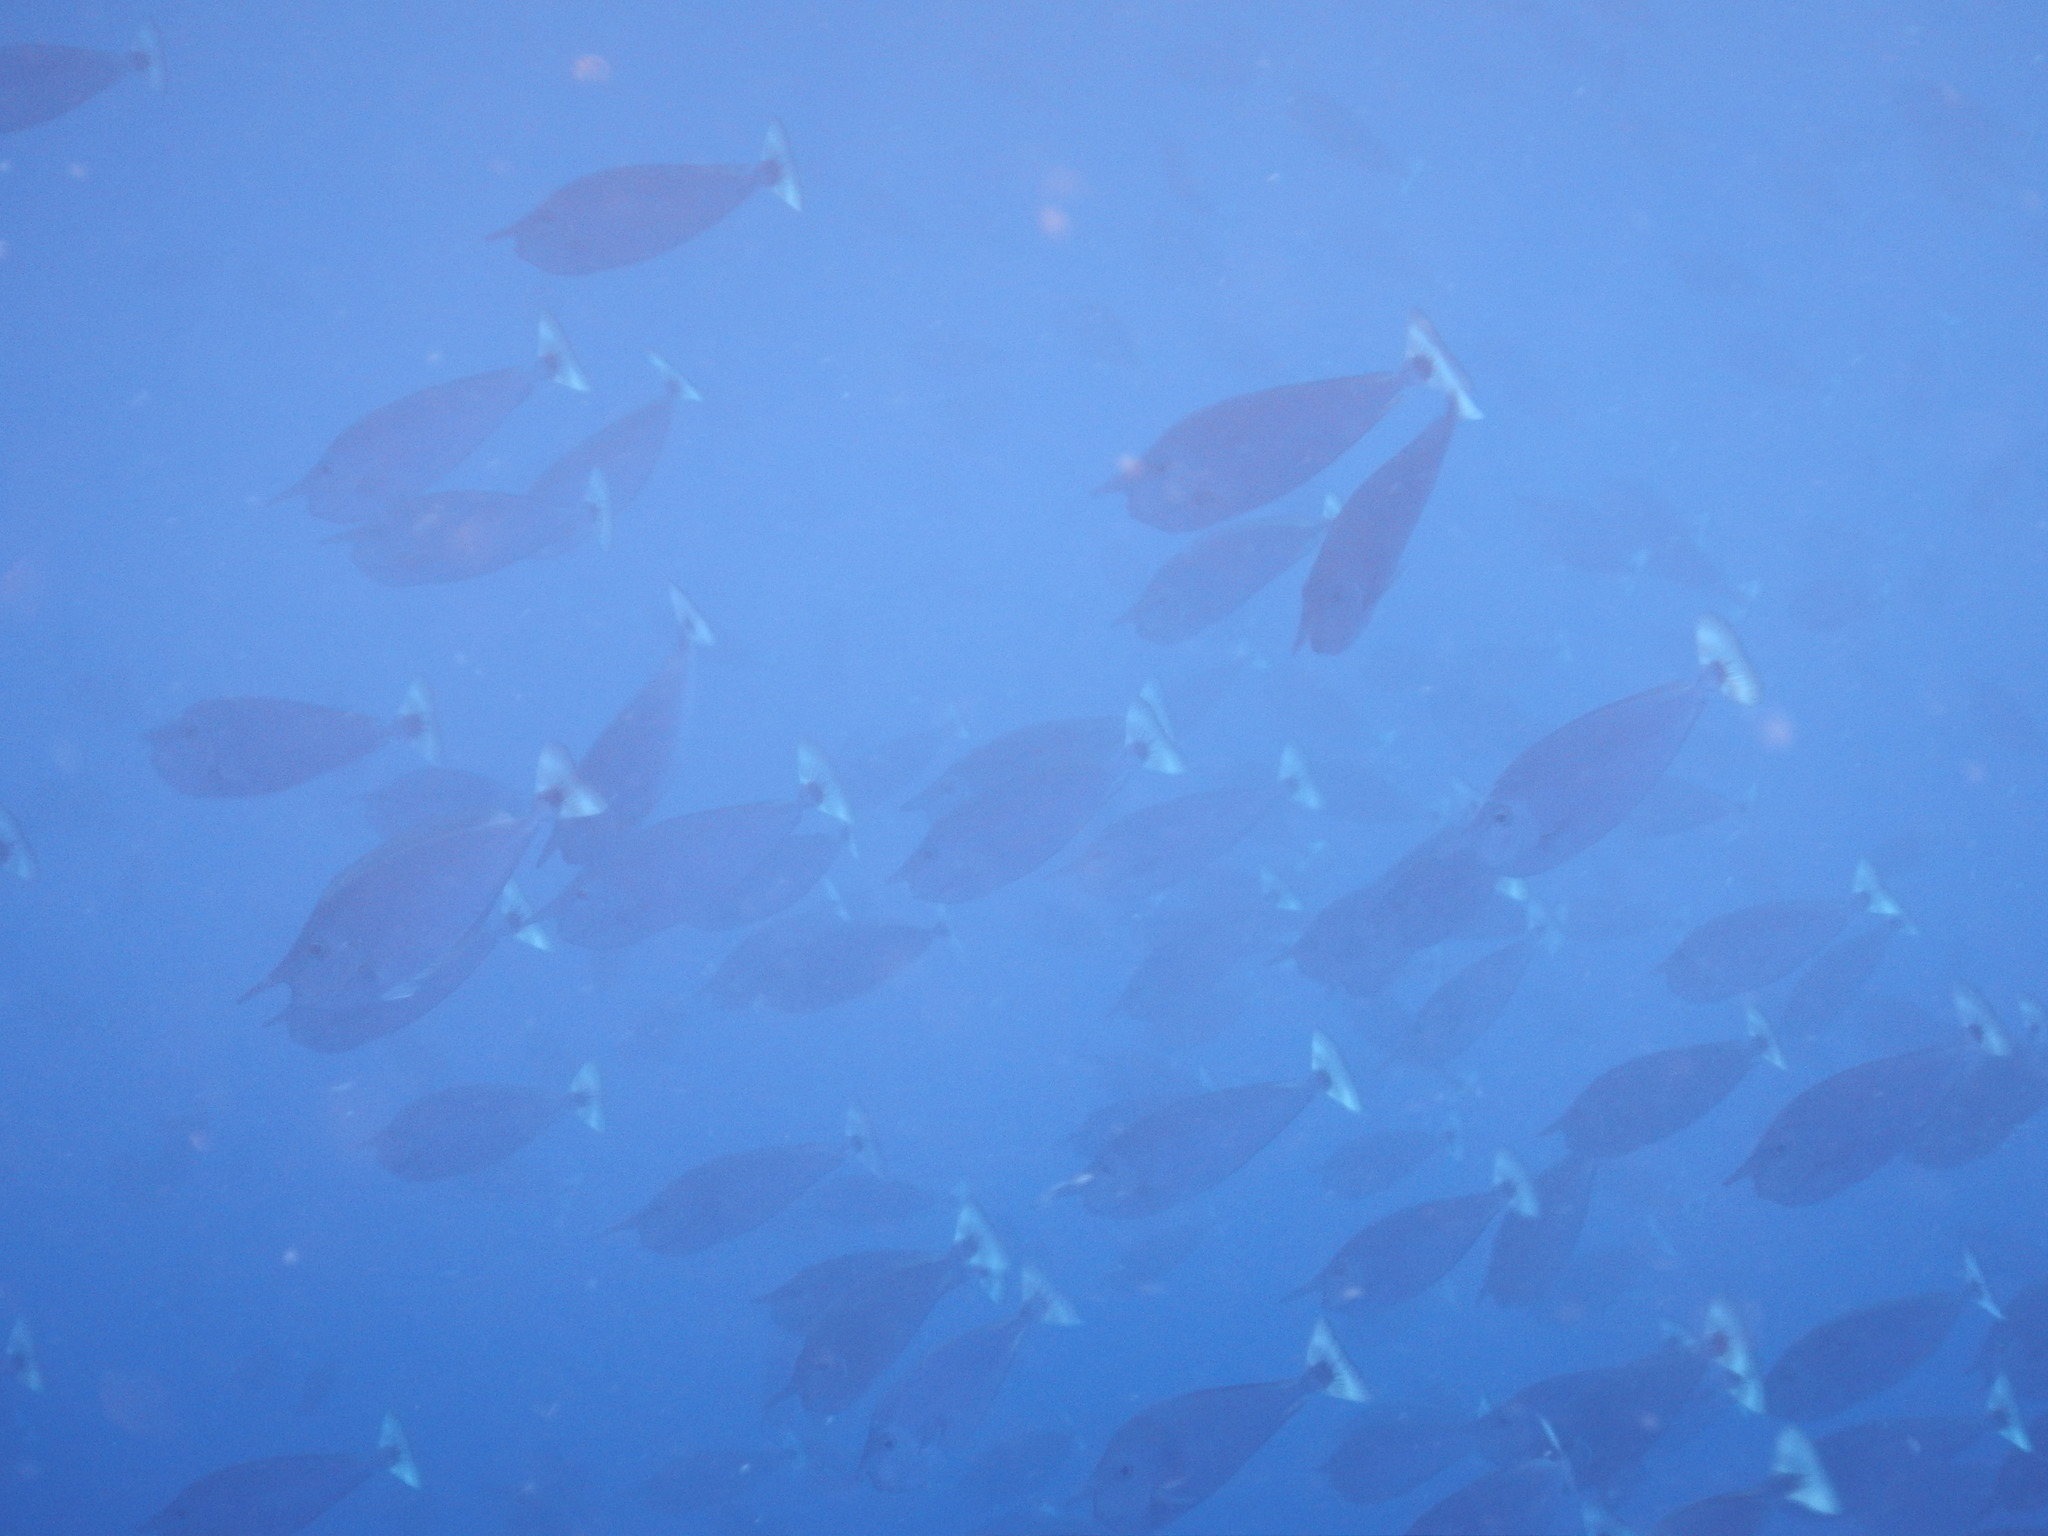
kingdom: Animalia
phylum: Chordata
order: Perciformes
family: Acanthuridae
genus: Naso
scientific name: Naso brevirostris
